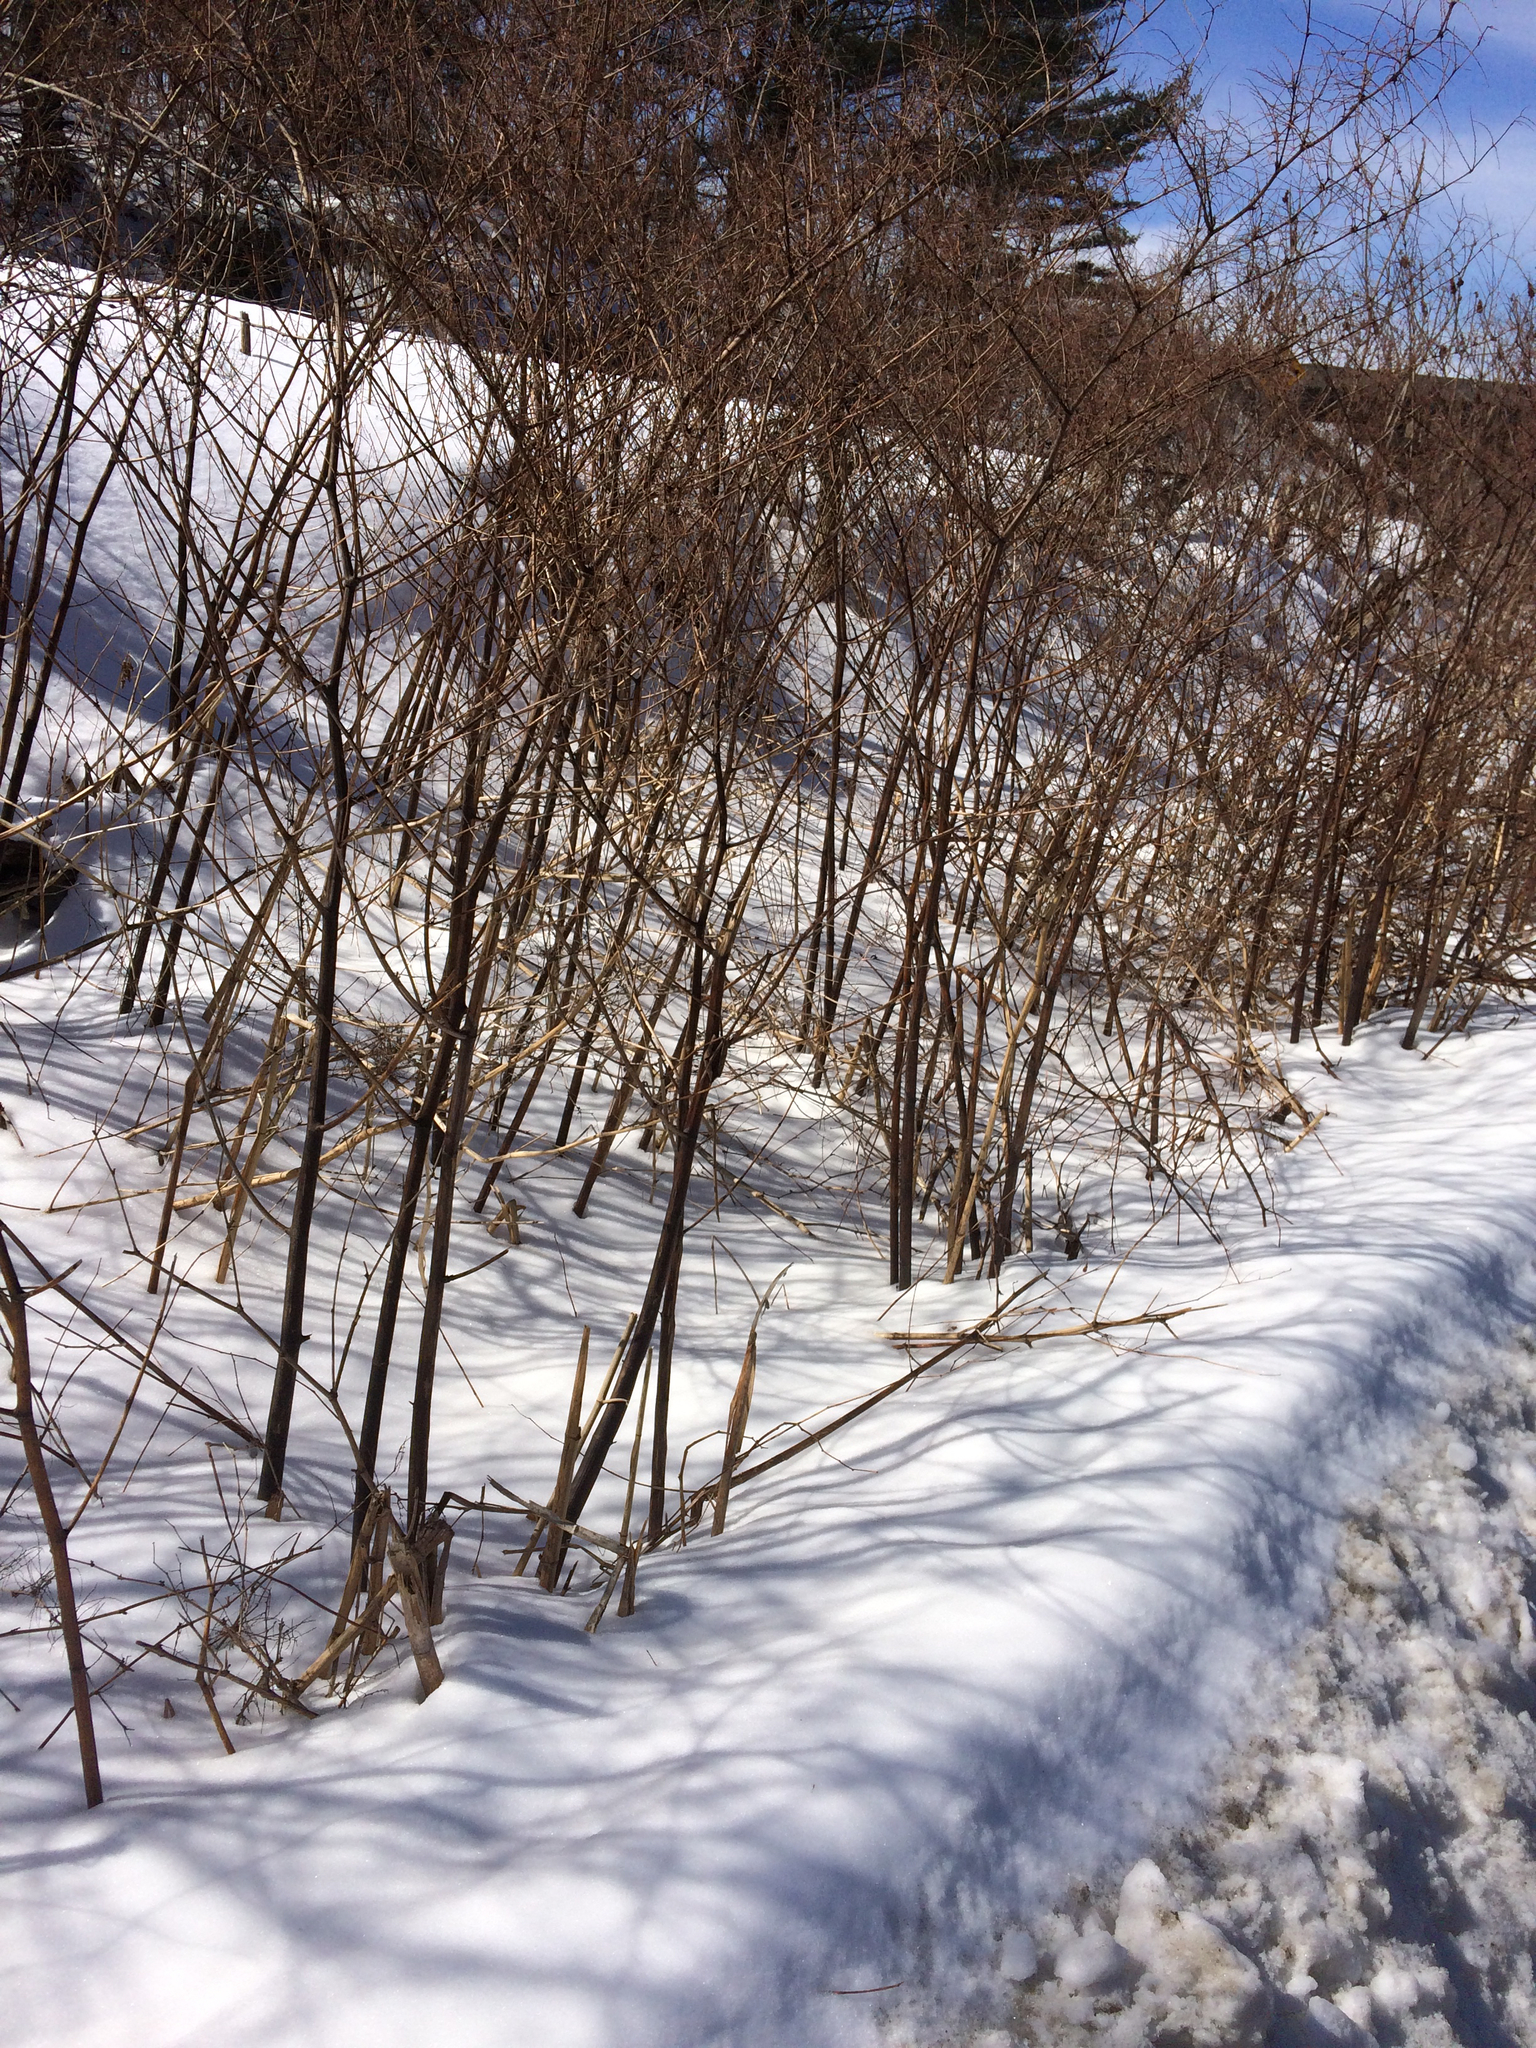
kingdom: Plantae
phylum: Tracheophyta
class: Magnoliopsida
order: Caryophyllales
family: Polygonaceae
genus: Reynoutria
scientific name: Reynoutria japonica
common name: Japanese knotweed
